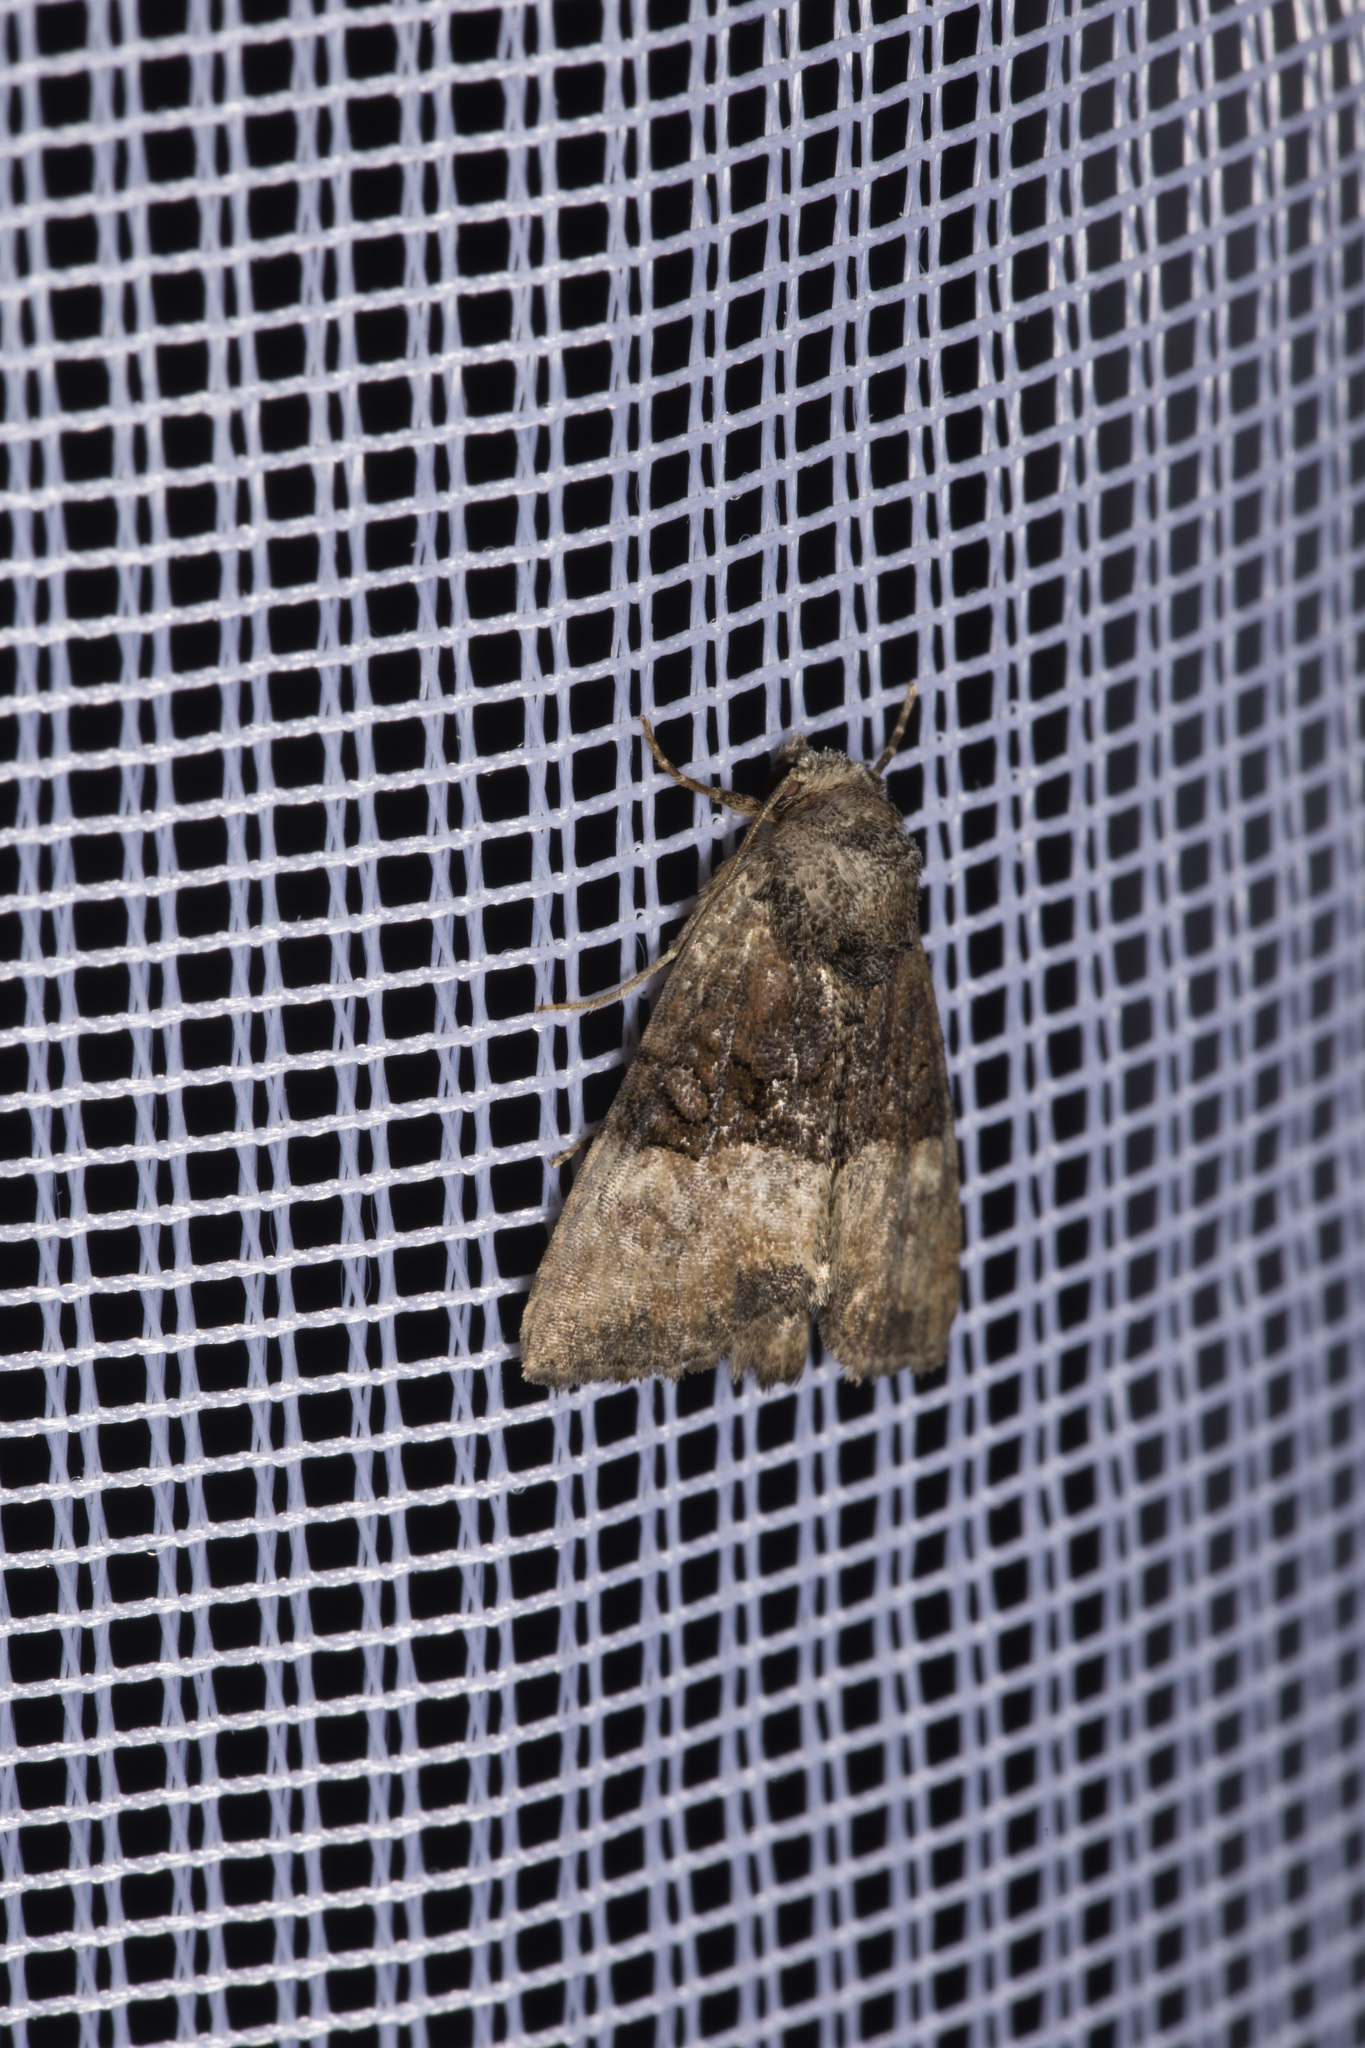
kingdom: Animalia
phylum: Arthropoda
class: Insecta
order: Lepidoptera
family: Noctuidae
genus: Mesoligia
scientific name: Mesoligia furuncula
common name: Cloaked minor
